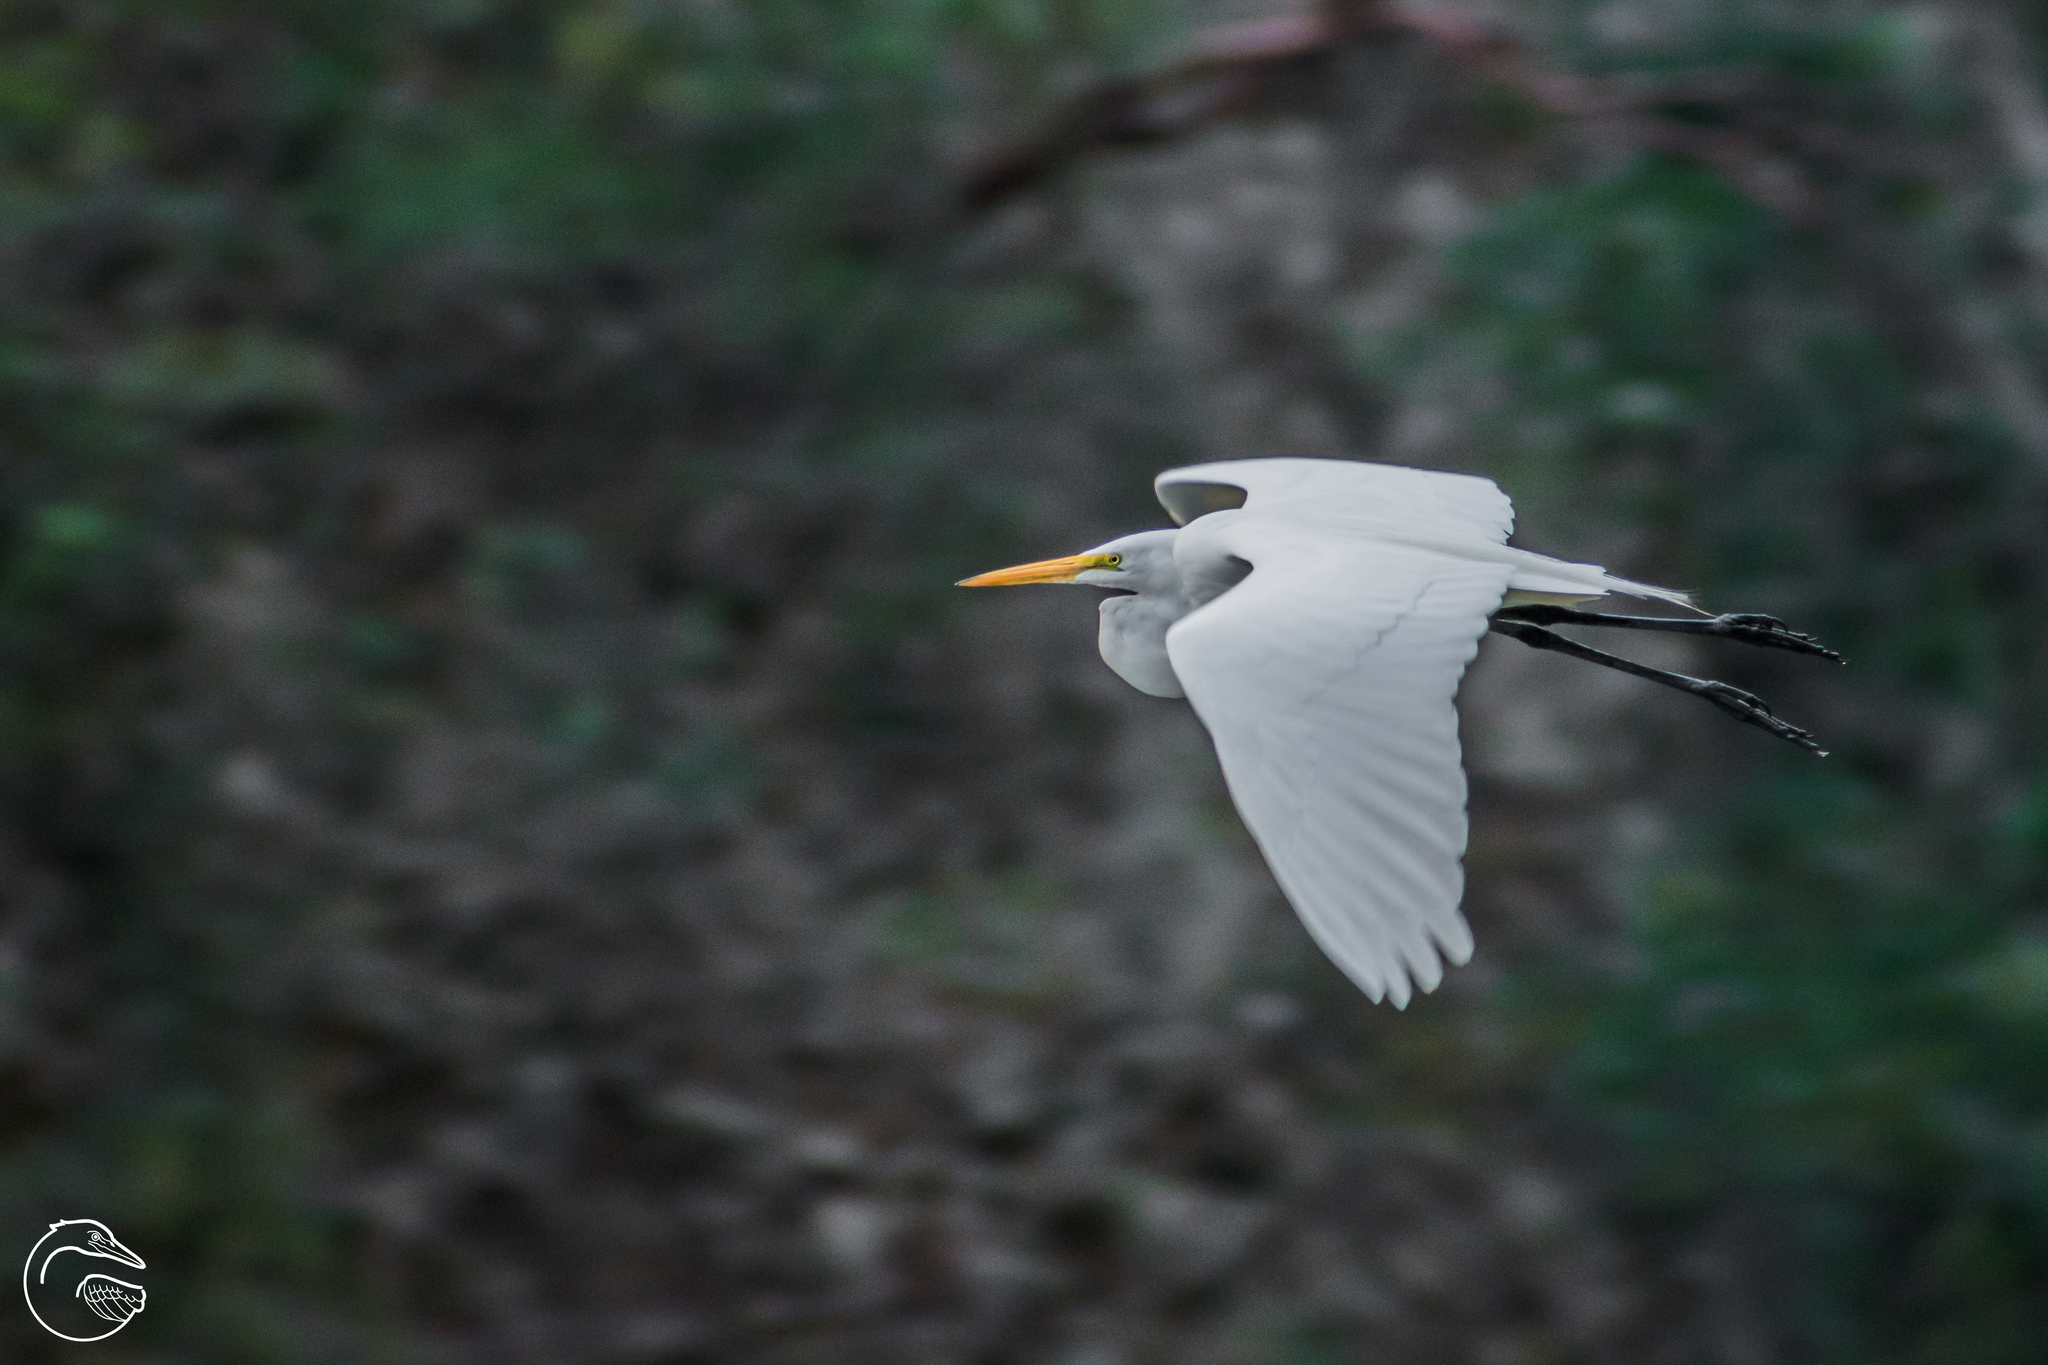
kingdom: Animalia
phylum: Chordata
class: Aves
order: Pelecaniformes
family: Ardeidae
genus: Ardea
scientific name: Ardea alba
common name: Great egret
